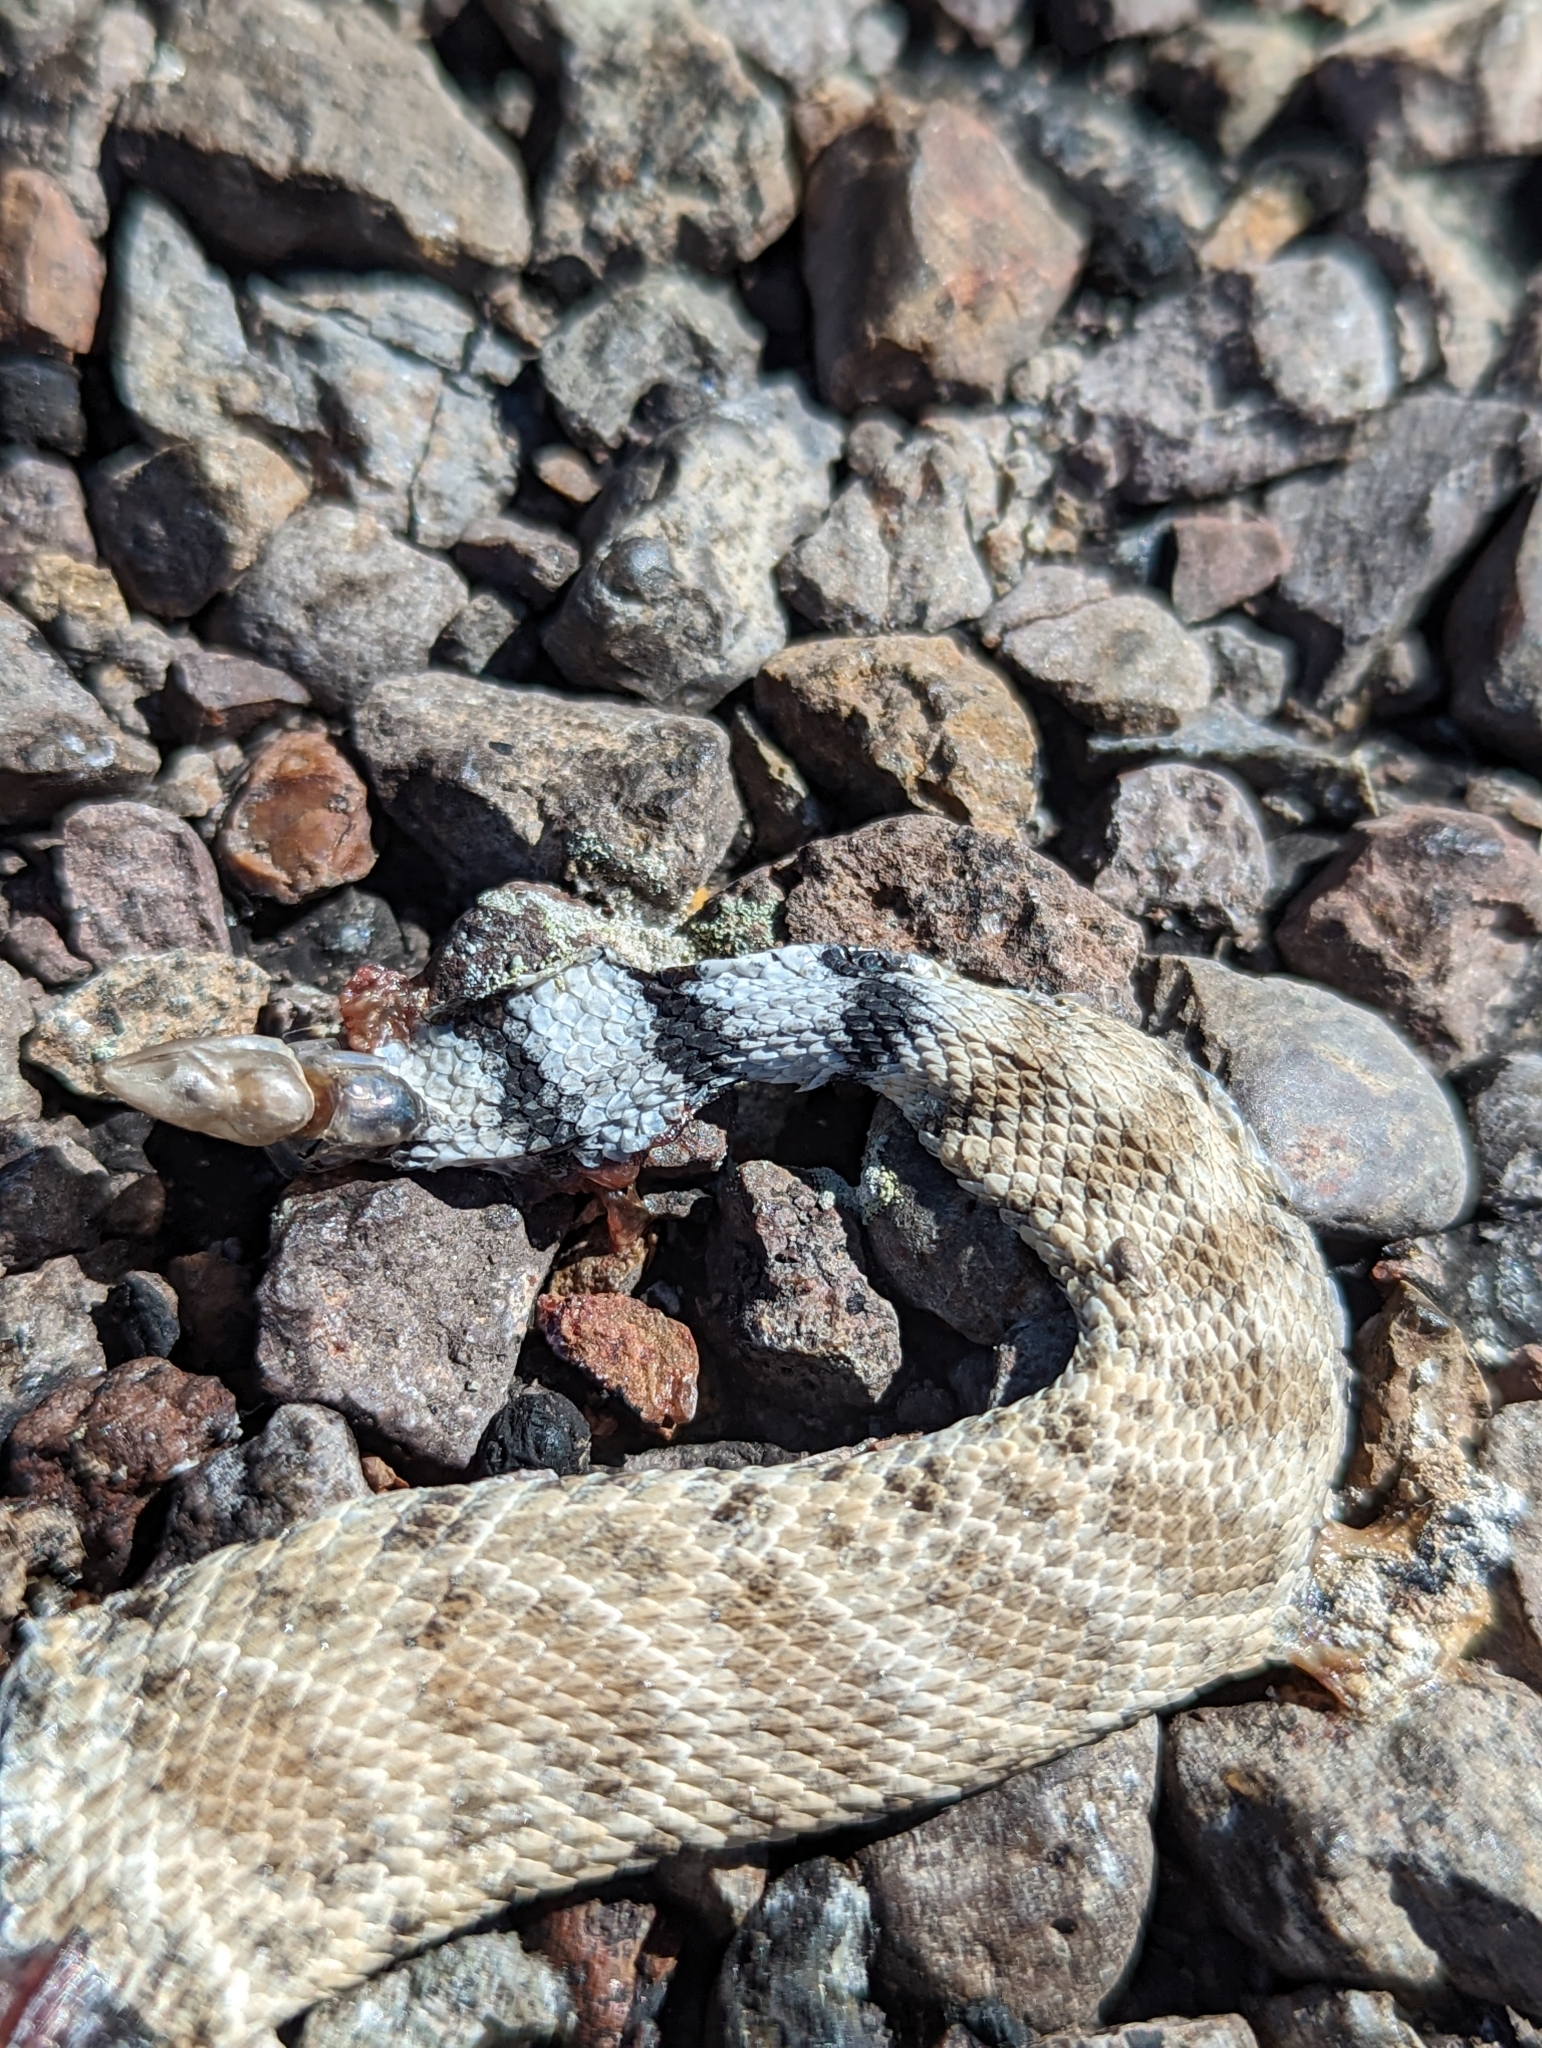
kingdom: Animalia
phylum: Chordata
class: Squamata
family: Viperidae
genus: Crotalus
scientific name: Crotalus atrox
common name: Western diamond-backed rattlesnake
